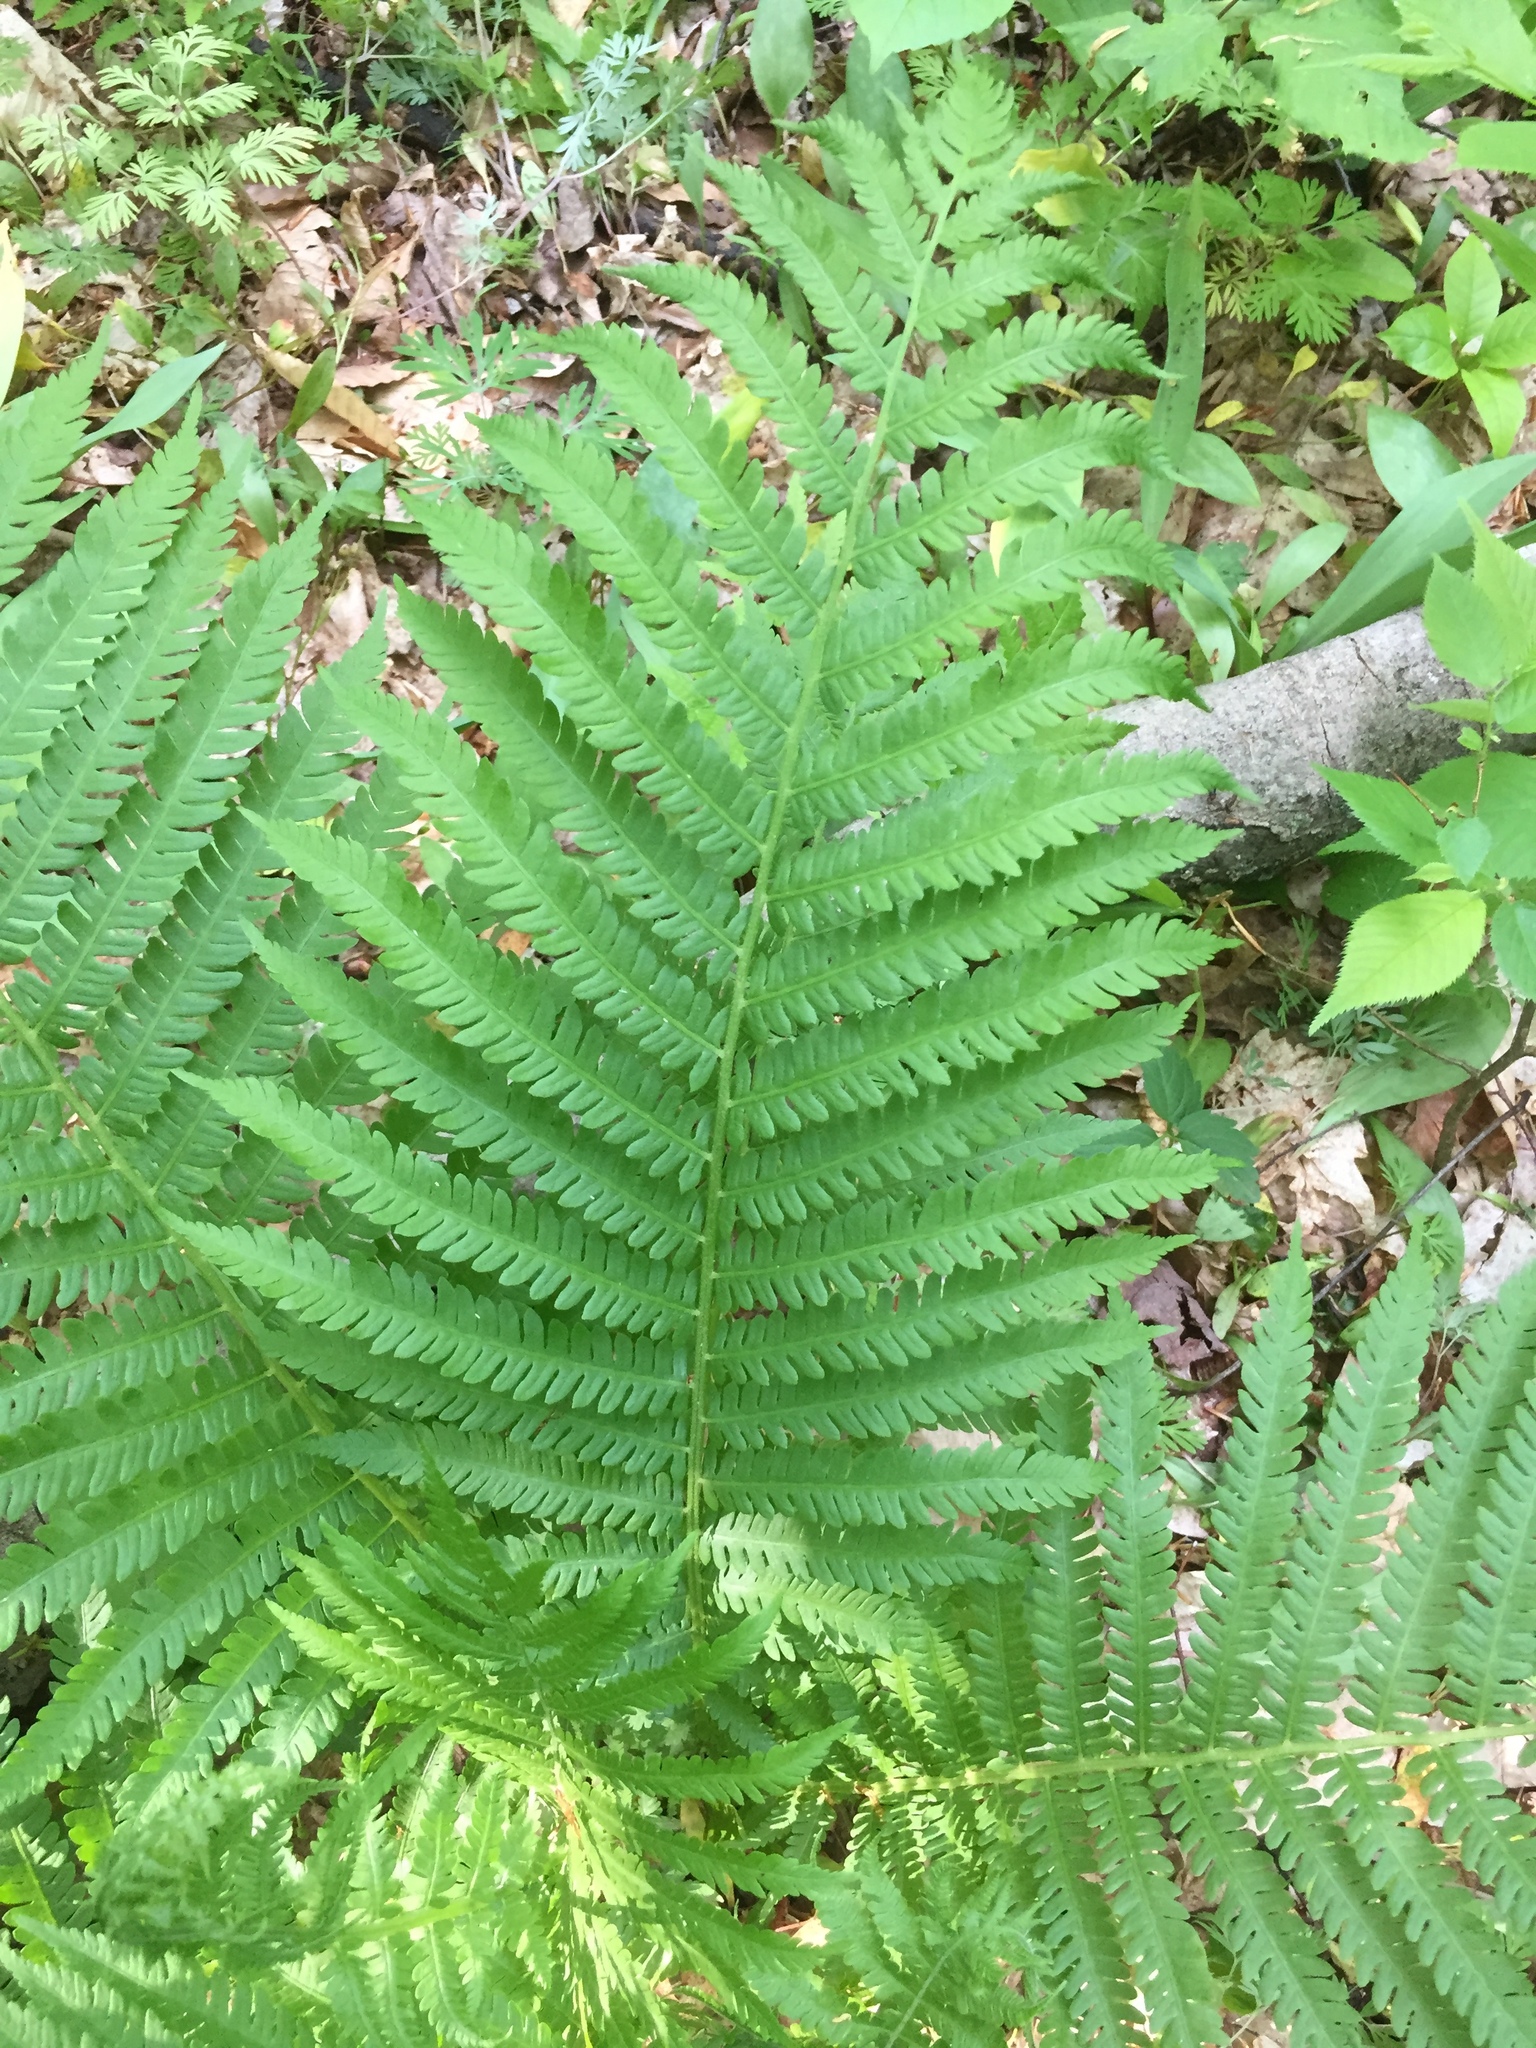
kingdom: Plantae
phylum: Tracheophyta
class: Polypodiopsida
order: Polypodiales
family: Onocleaceae
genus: Matteuccia
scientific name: Matteuccia struthiopteris
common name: Ostrich fern
